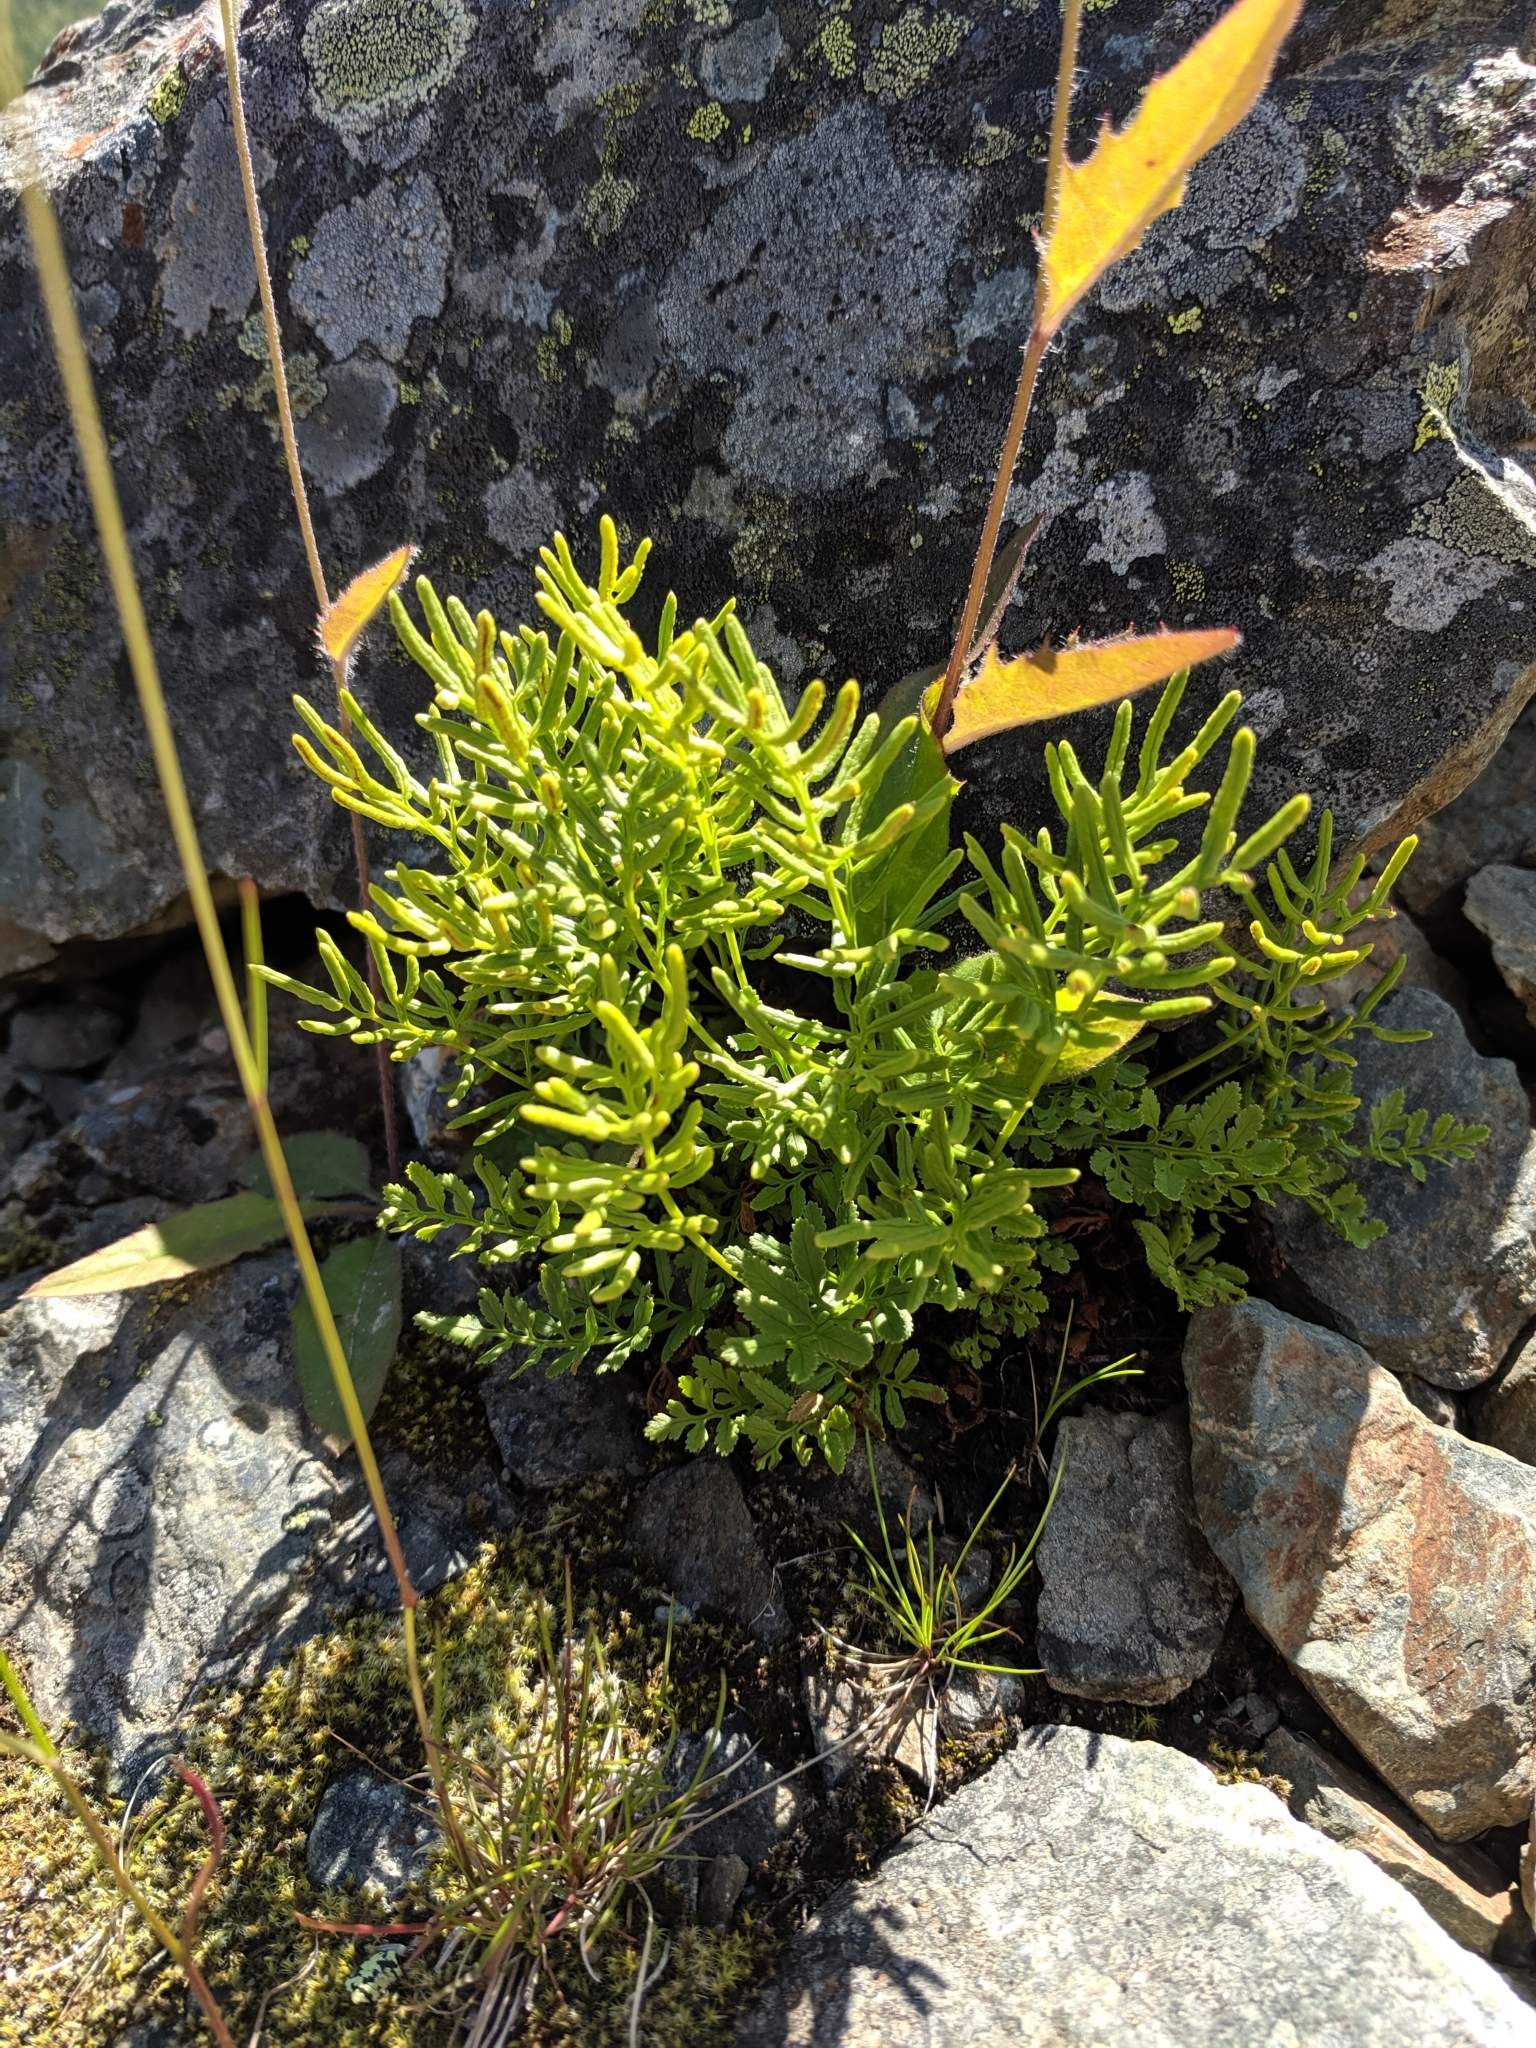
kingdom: Plantae
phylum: Tracheophyta
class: Polypodiopsida
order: Polypodiales
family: Pteridaceae
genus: Cryptogramma
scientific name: Cryptogramma acrostichoides
